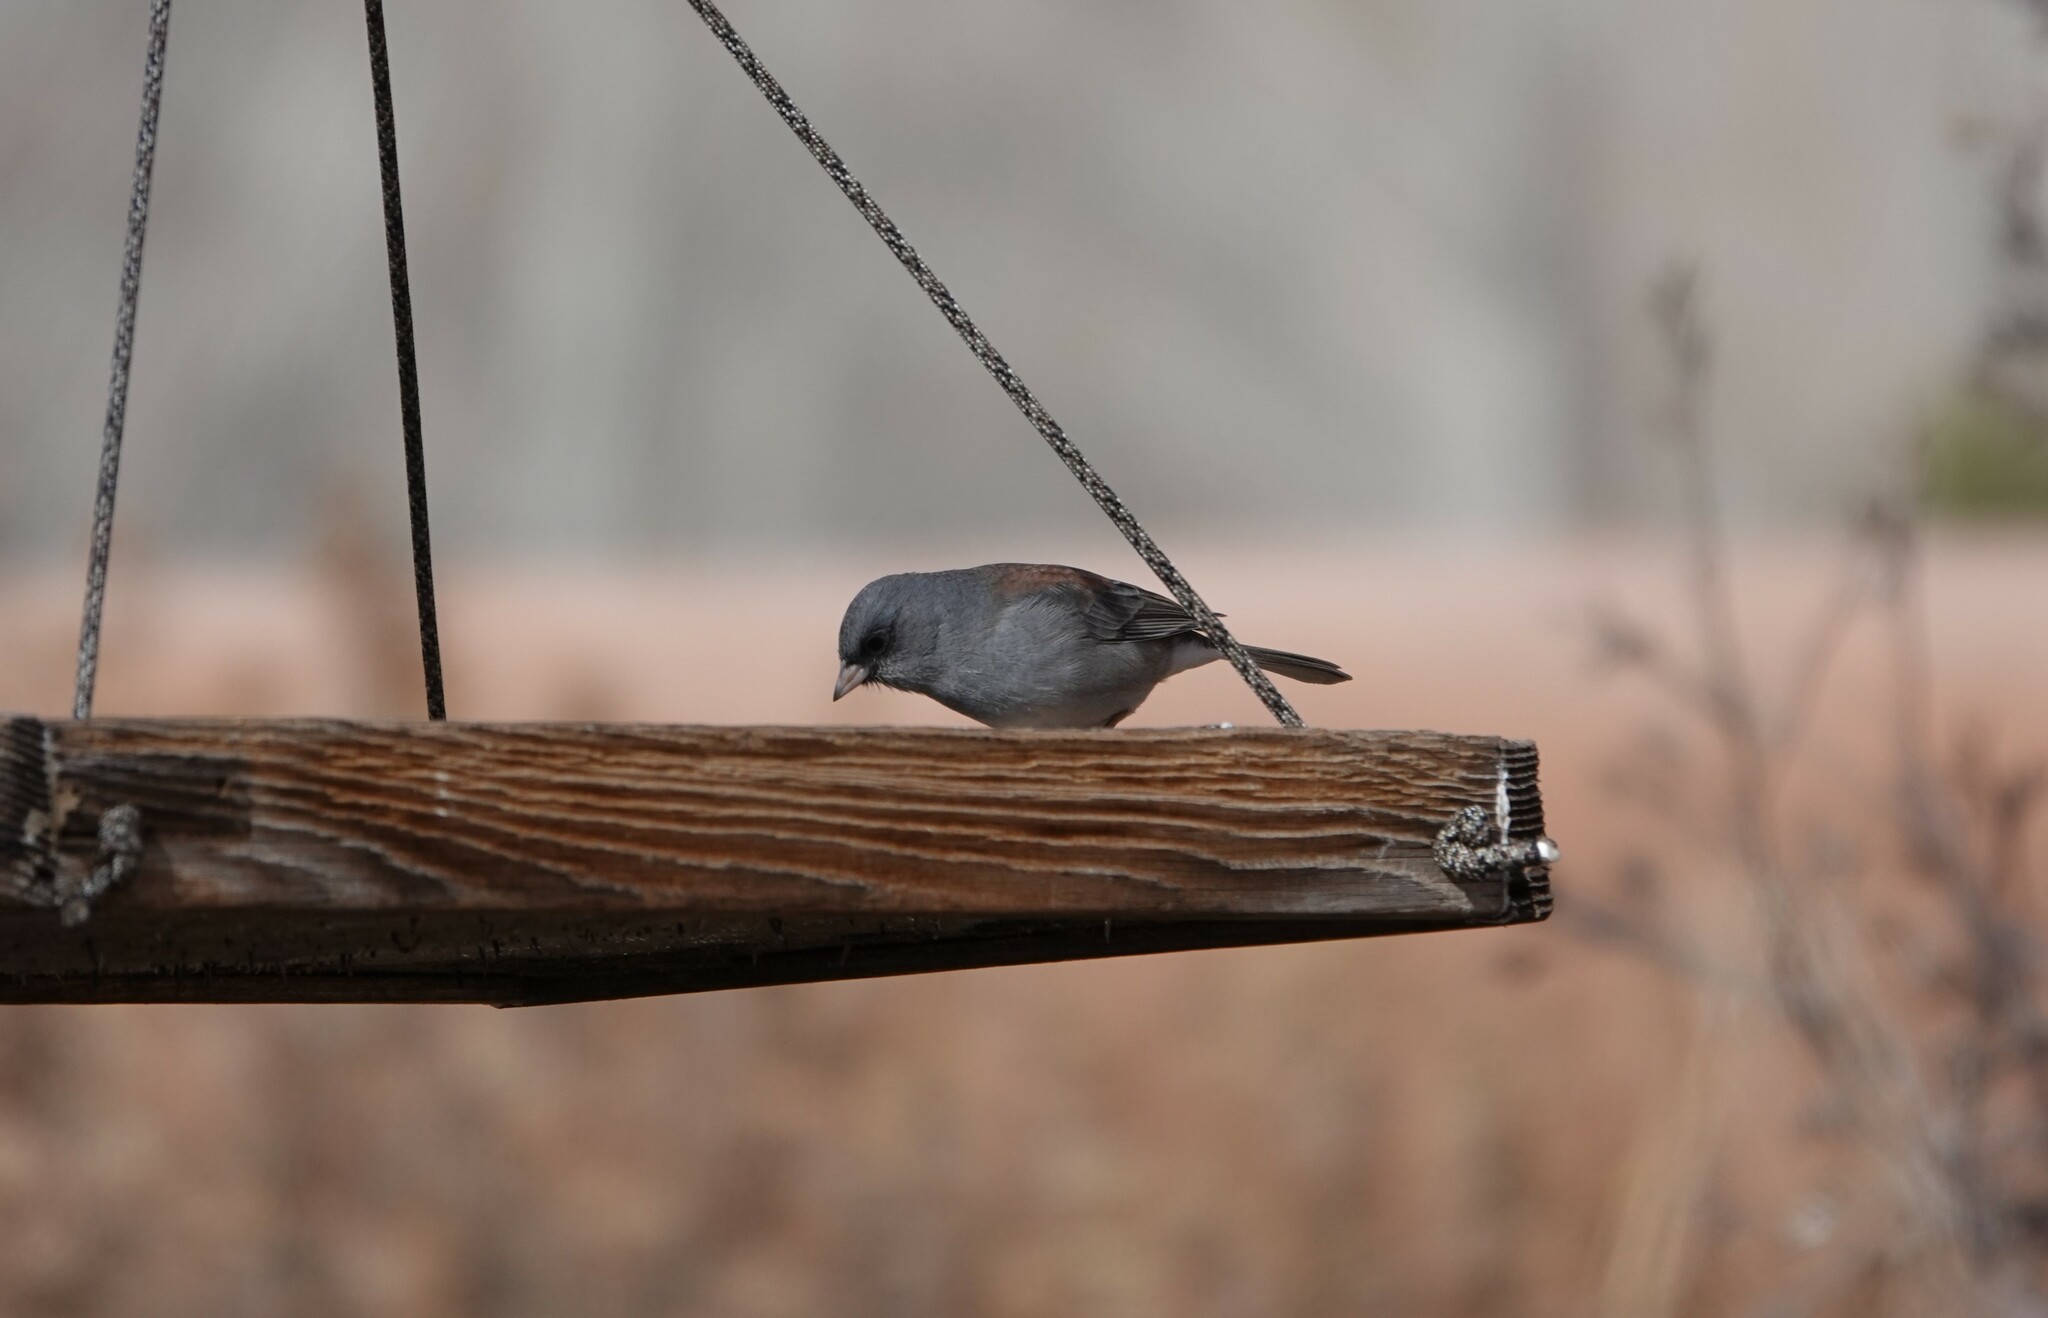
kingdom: Animalia
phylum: Chordata
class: Aves
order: Passeriformes
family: Passerellidae
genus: Junco
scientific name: Junco hyemalis
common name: Dark-eyed junco
